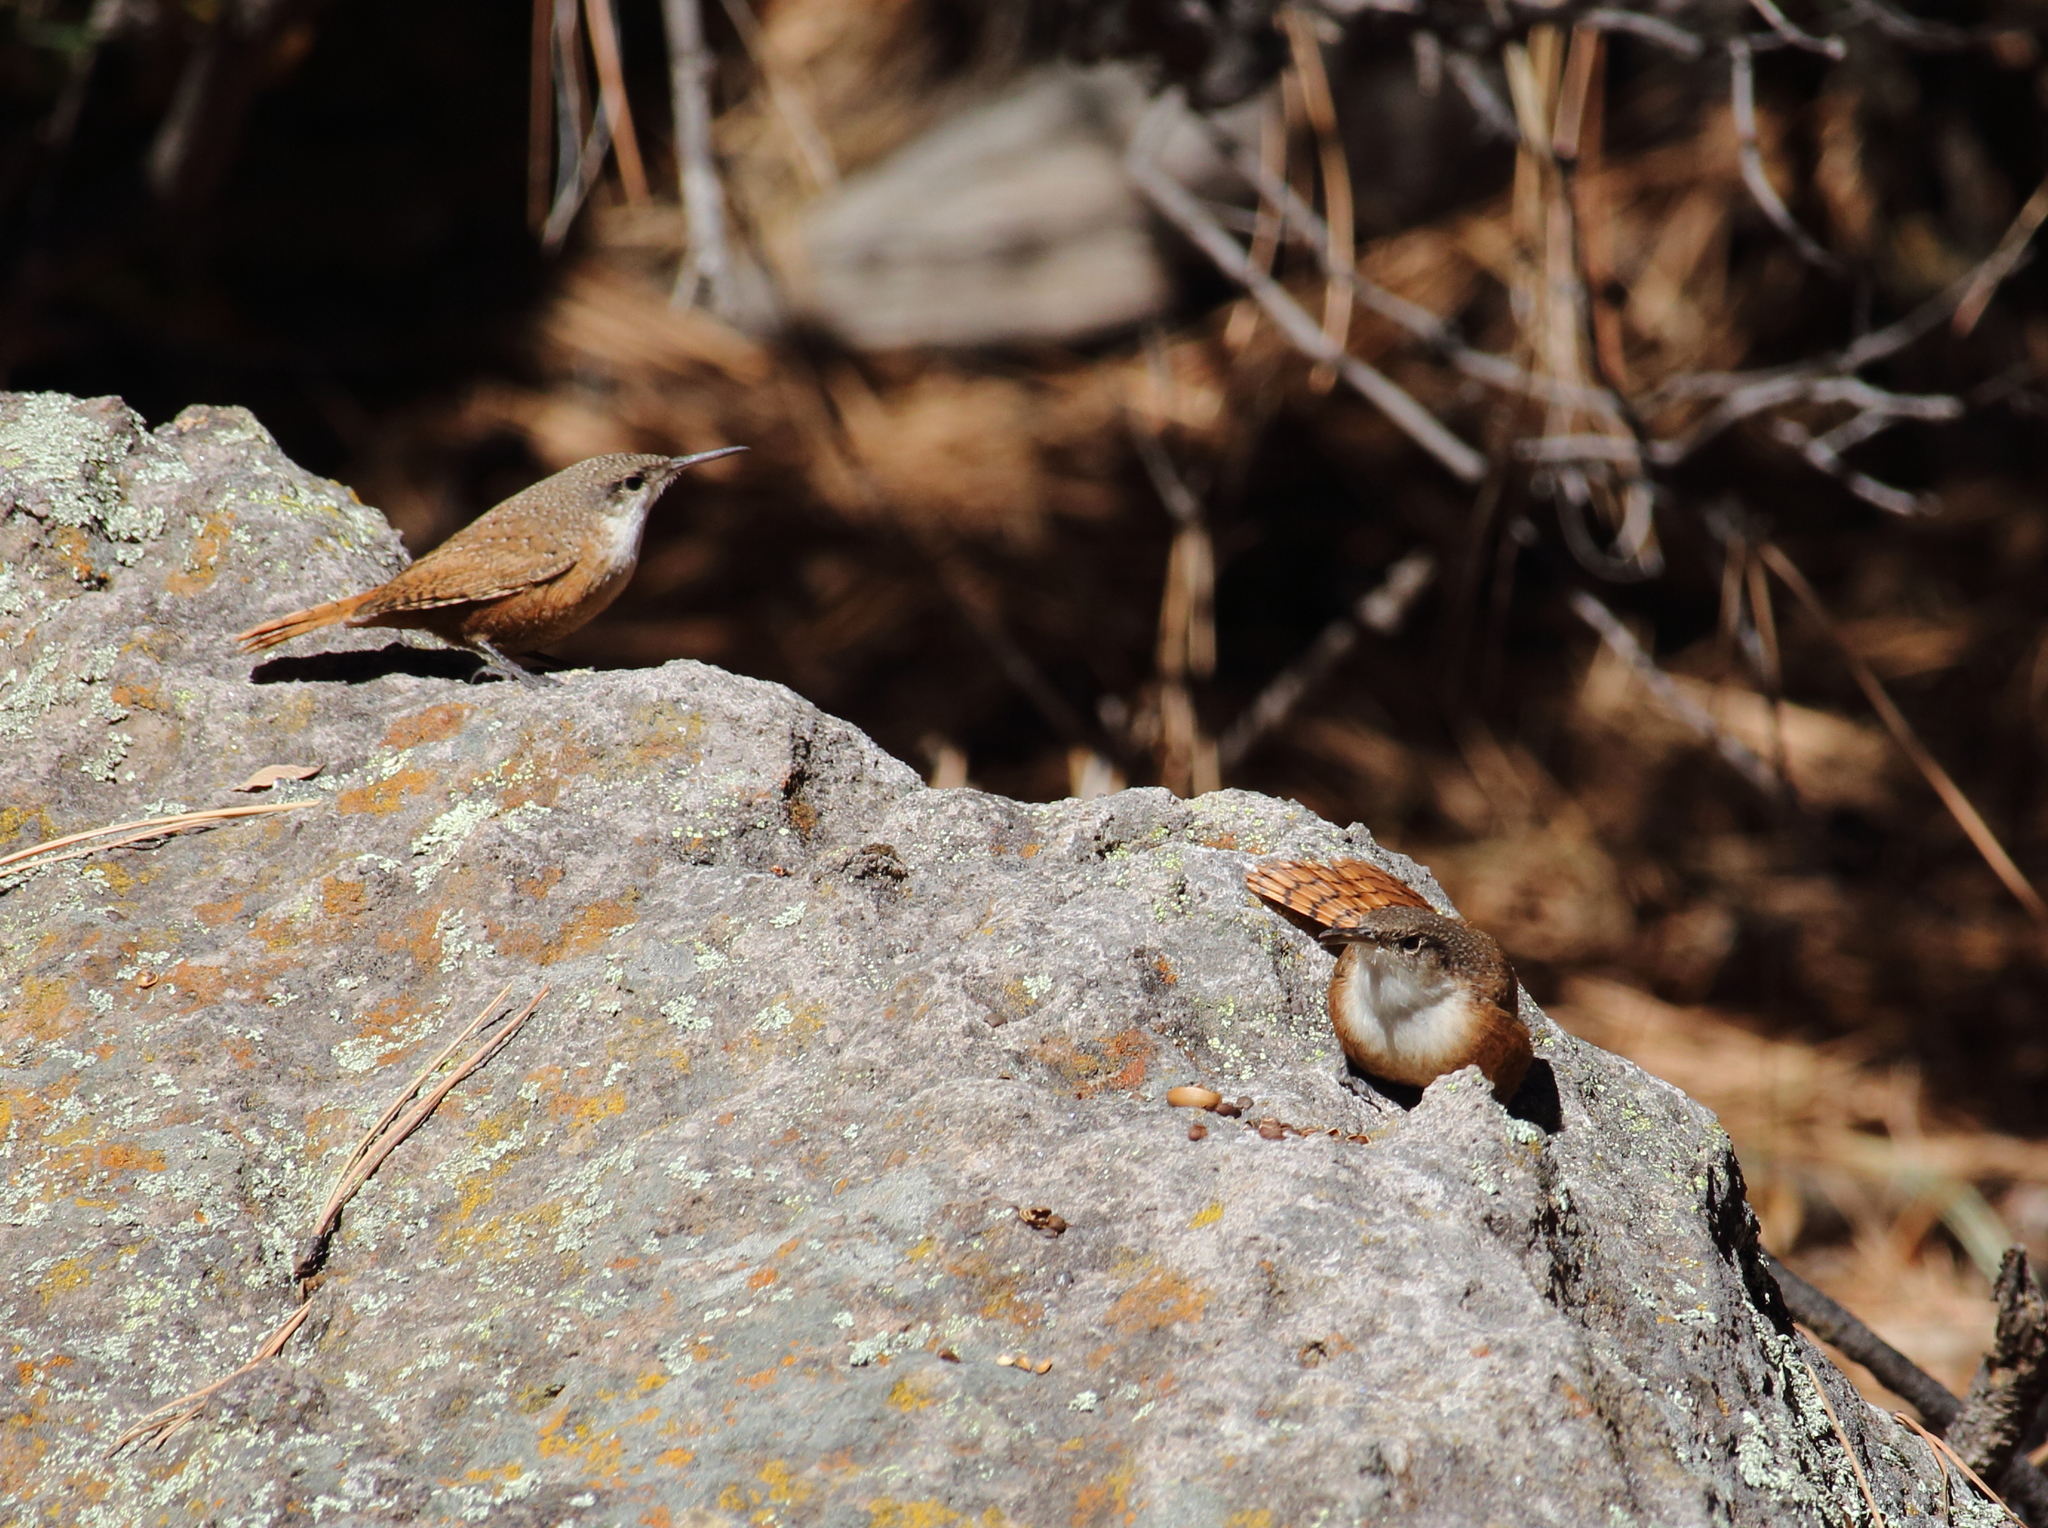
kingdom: Animalia
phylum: Chordata
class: Aves
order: Passeriformes
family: Troglodytidae
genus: Catherpes
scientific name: Catherpes mexicanus
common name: Canyon wren
